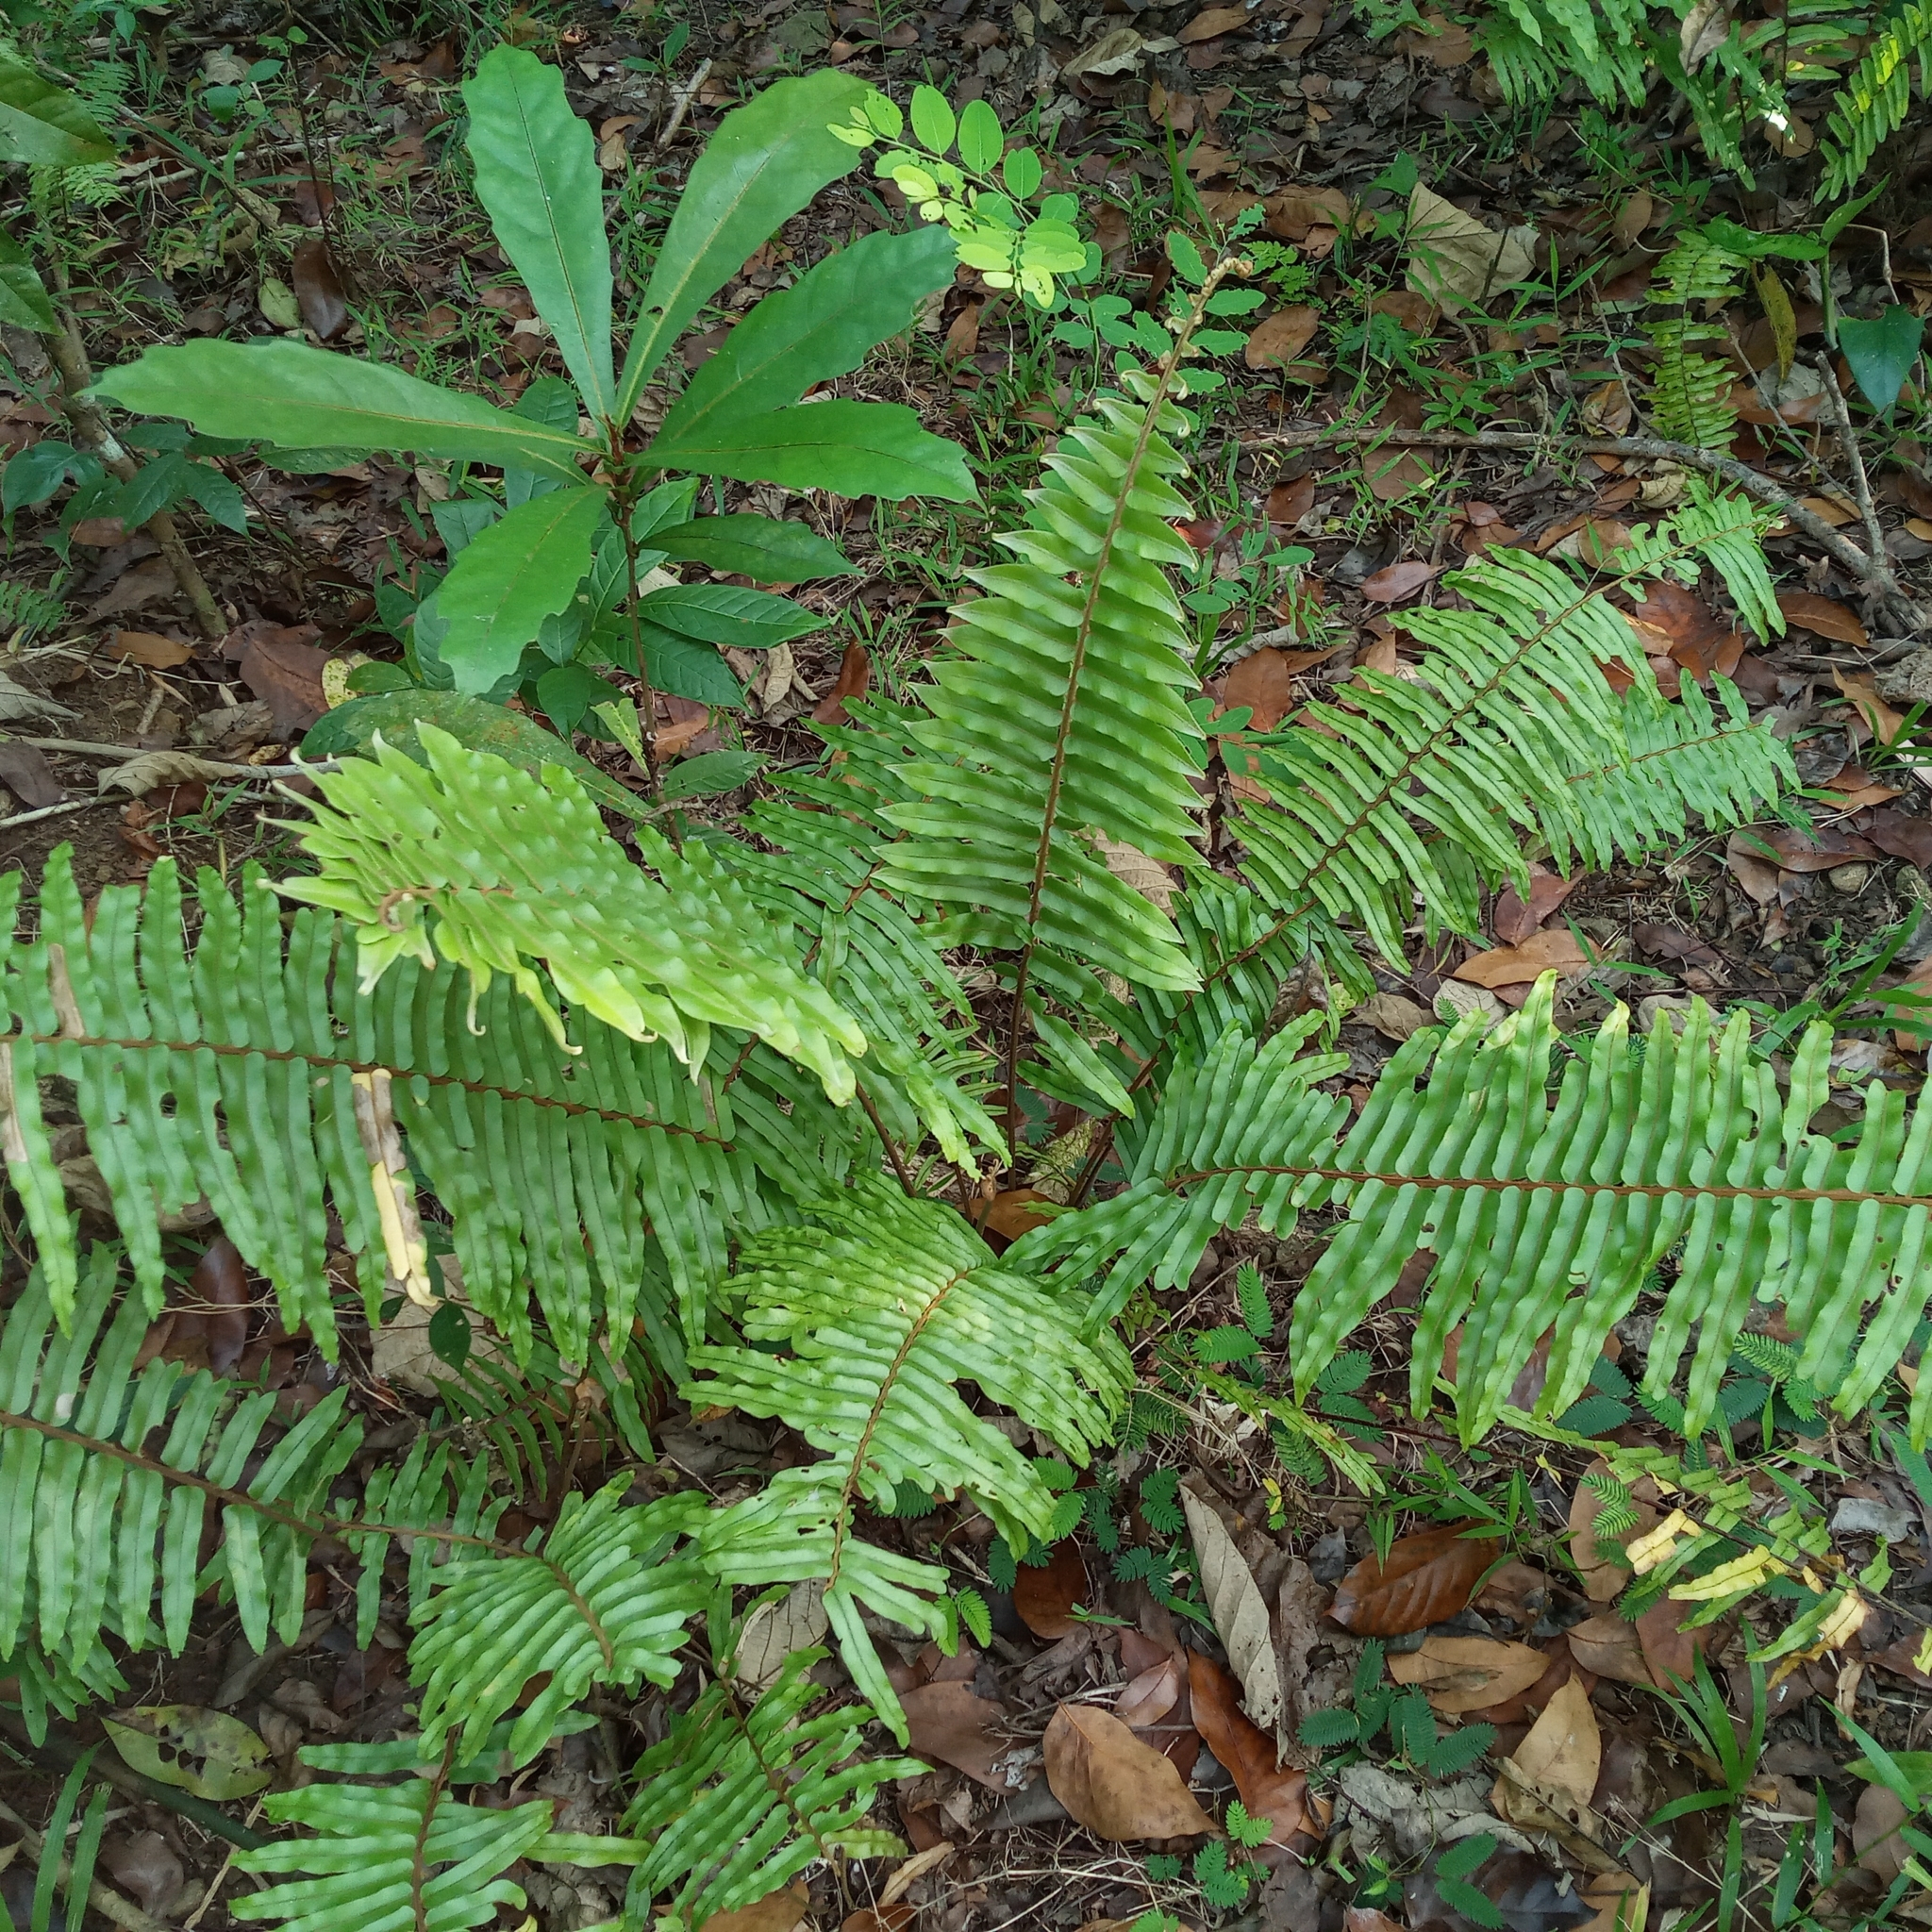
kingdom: Plantae
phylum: Tracheophyta
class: Polypodiopsida
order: Polypodiales
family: Nephrolepidaceae
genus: Nephrolepis
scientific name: Nephrolepis biserrata
